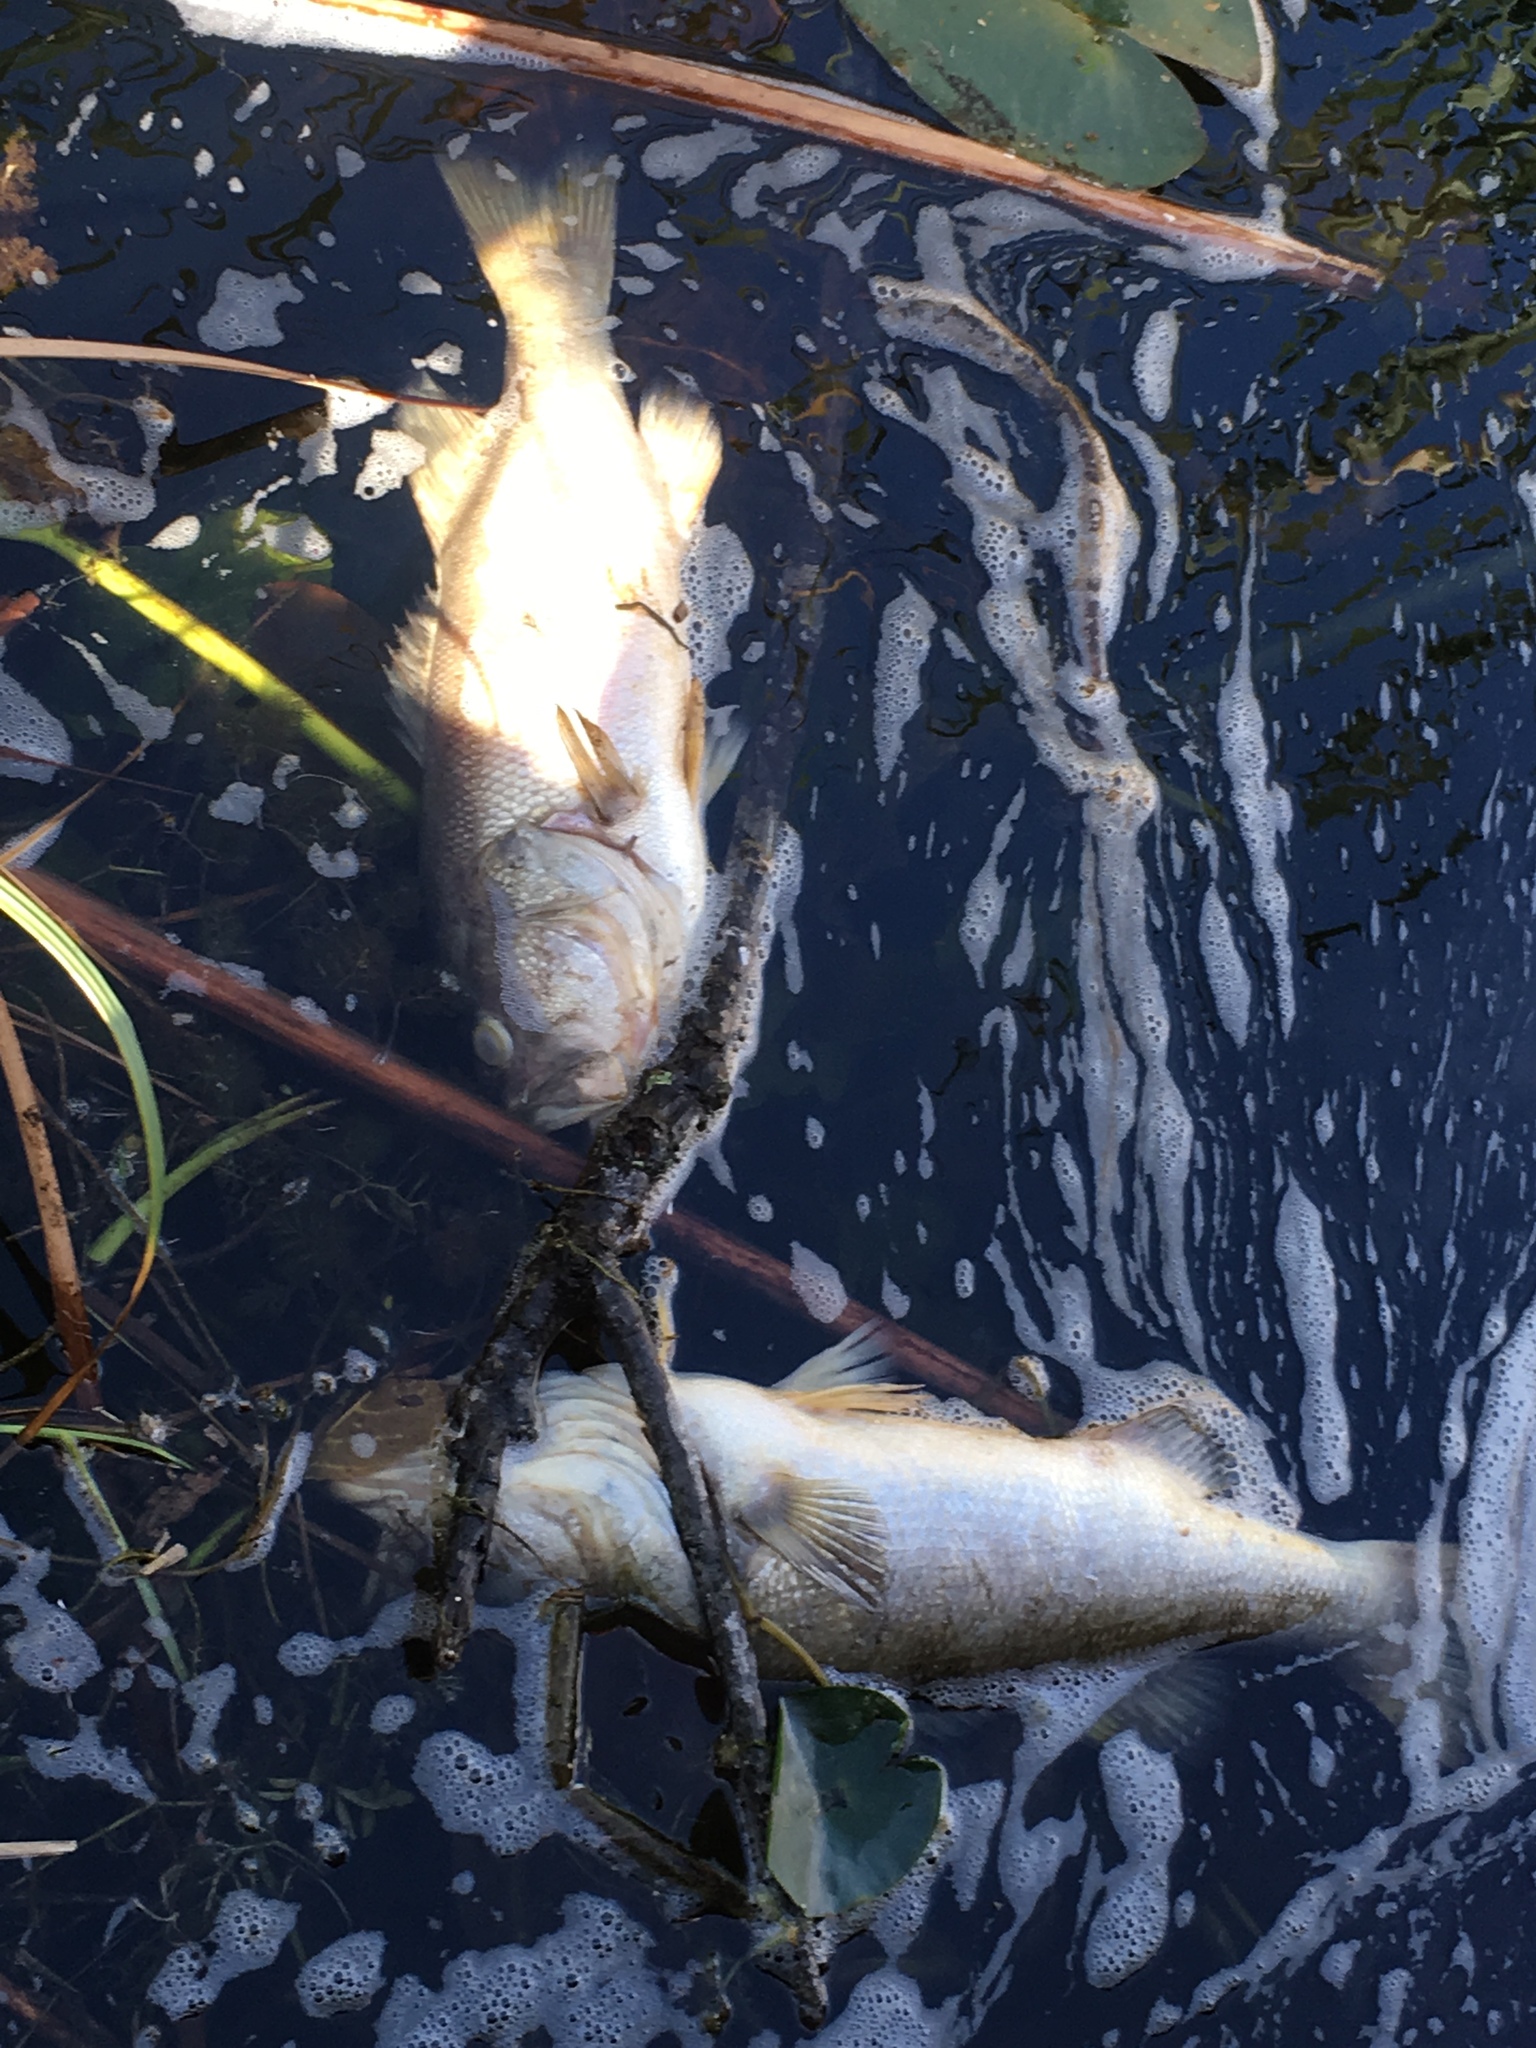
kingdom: Animalia
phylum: Chordata
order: Perciformes
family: Centrarchidae
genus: Micropterus
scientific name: Micropterus salmoides
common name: Largemouth bass
